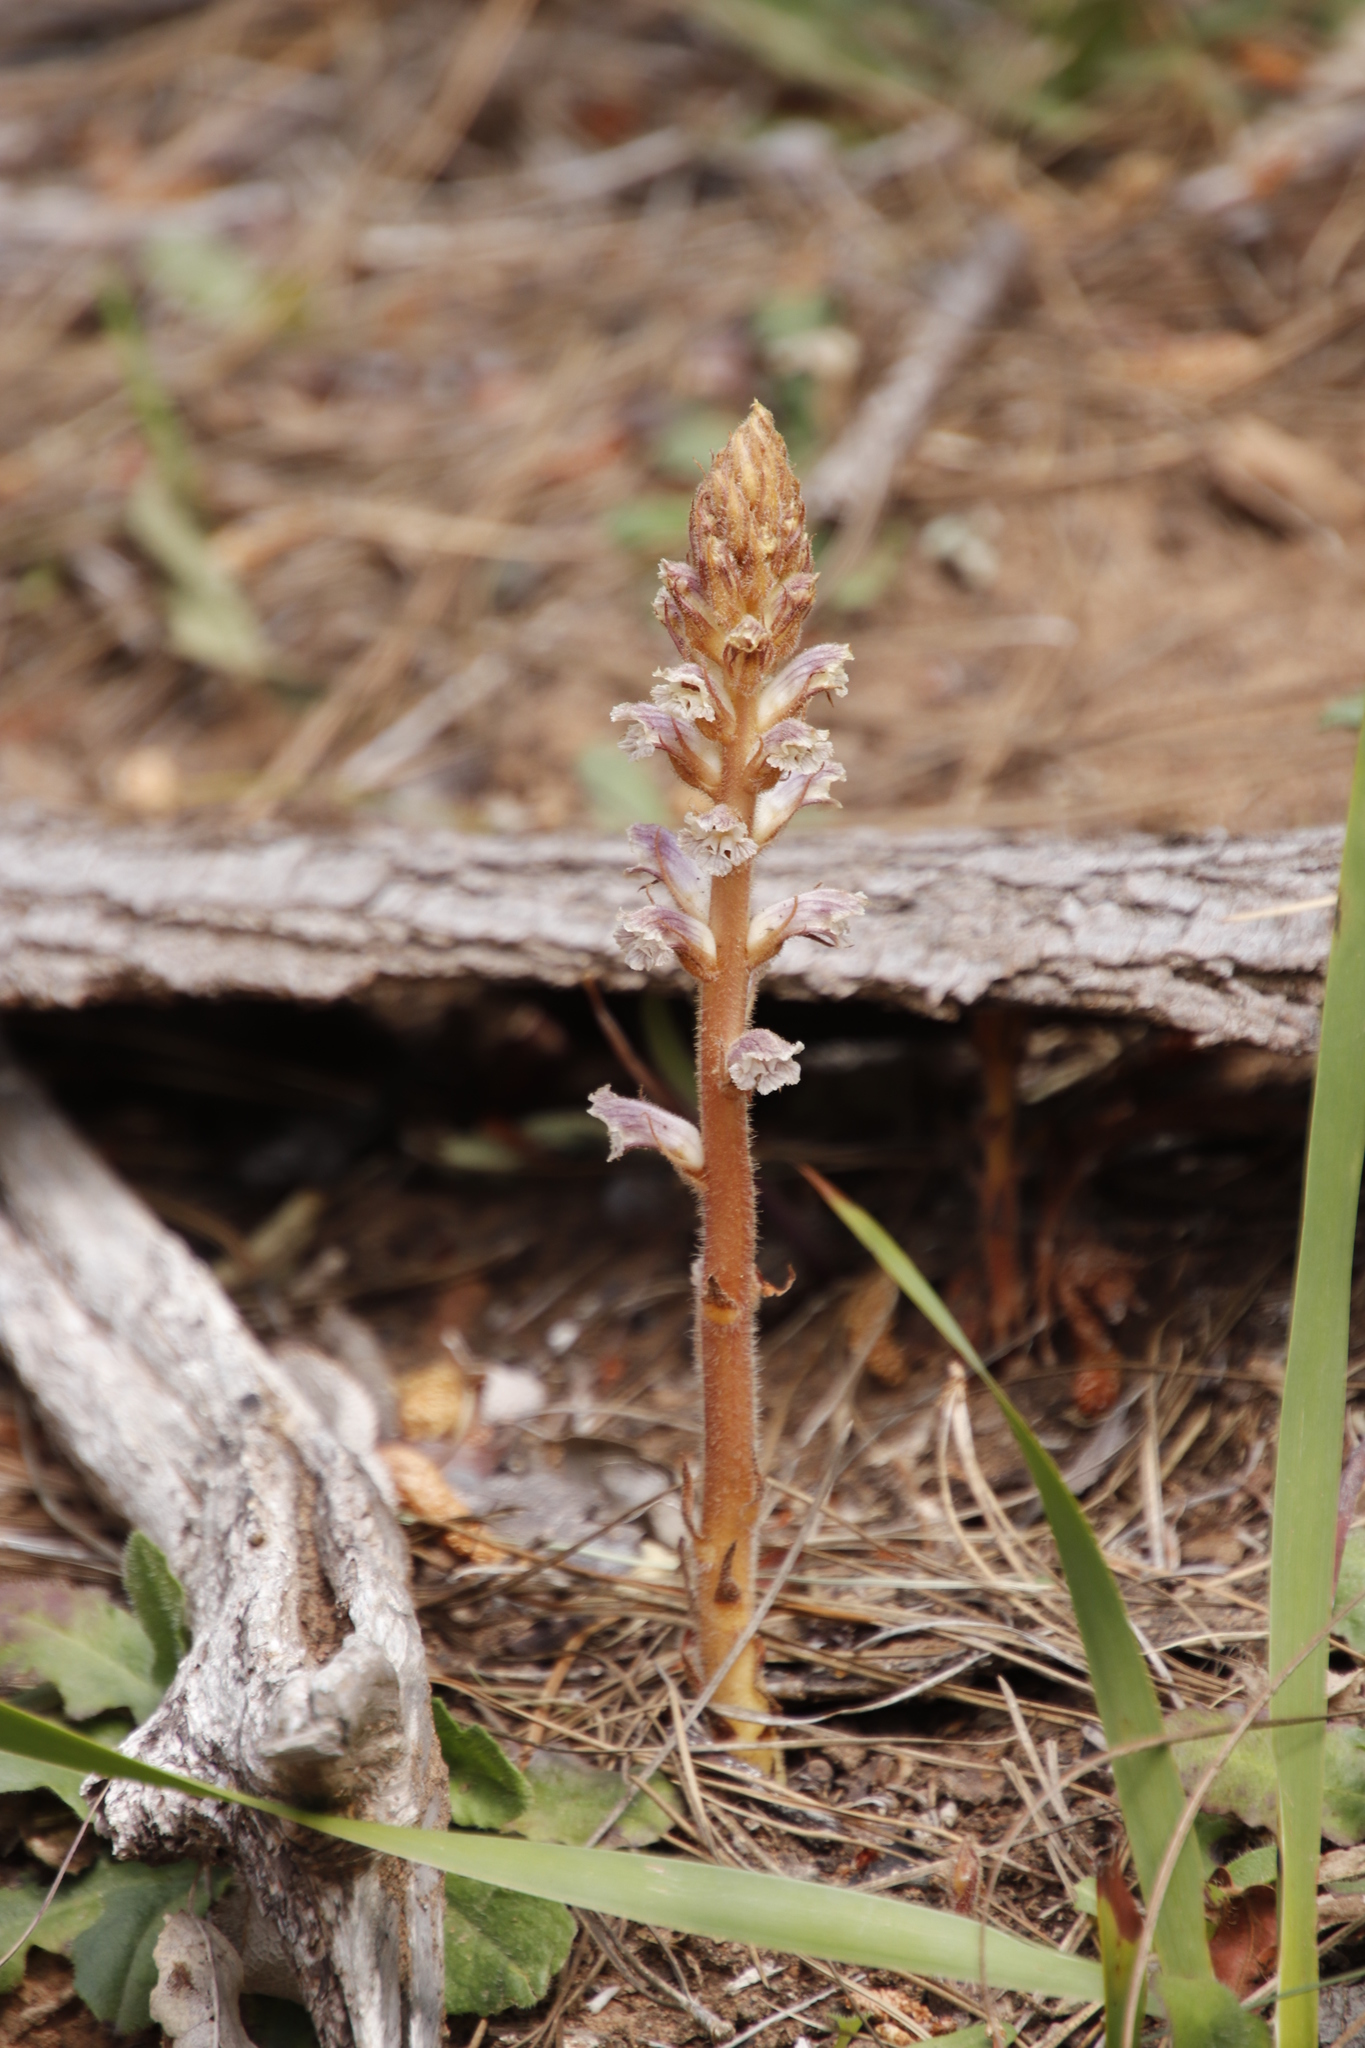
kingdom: Plantae
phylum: Tracheophyta
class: Magnoliopsida
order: Lamiales
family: Orobanchaceae
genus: Orobanche
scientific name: Orobanche minor
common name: Common broomrape
